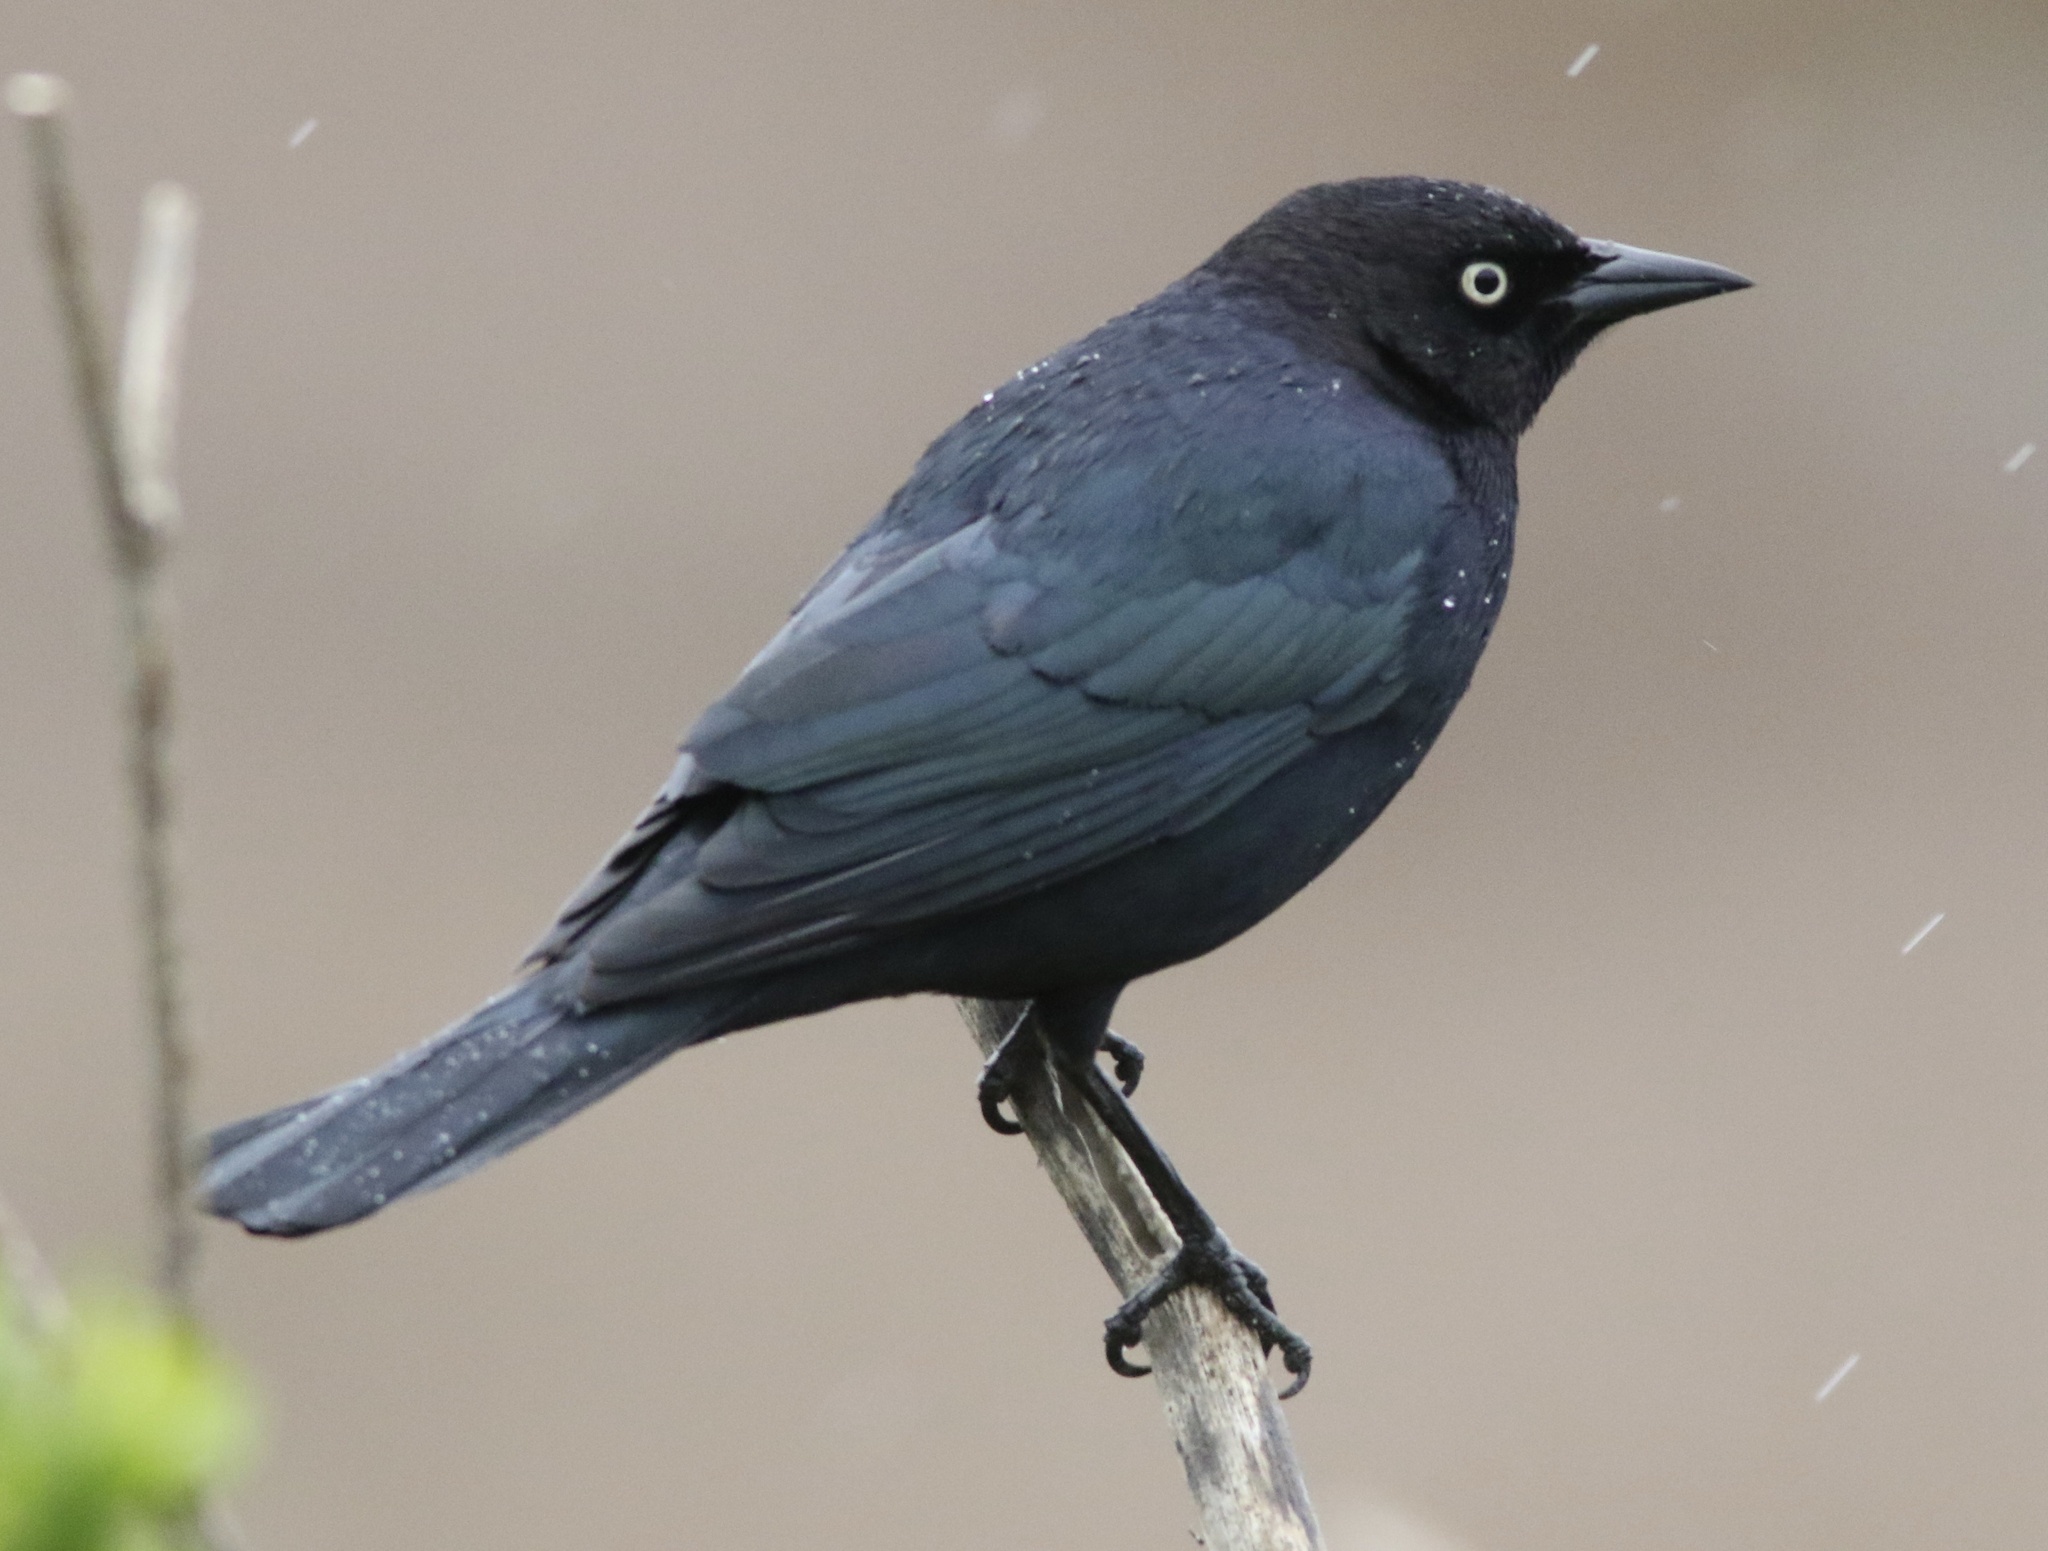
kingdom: Animalia
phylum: Chordata
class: Aves
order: Passeriformes
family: Icteridae
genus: Euphagus
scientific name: Euphagus cyanocephalus
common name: Brewer's blackbird
